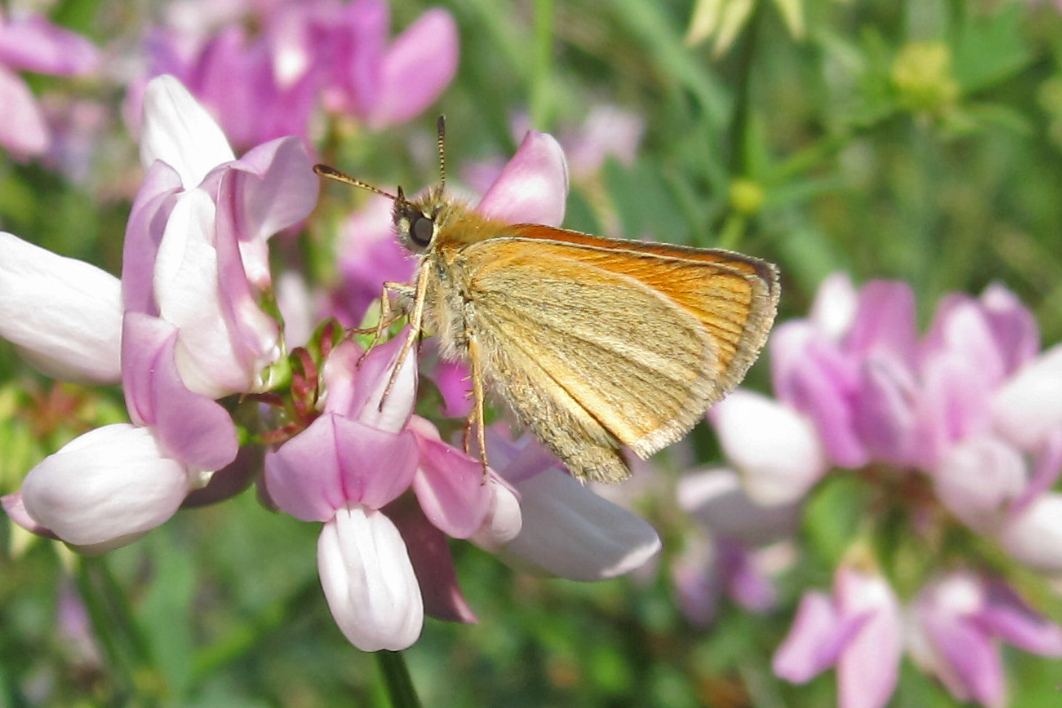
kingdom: Animalia
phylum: Arthropoda
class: Insecta
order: Lepidoptera
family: Hesperiidae
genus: Thymelicus
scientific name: Thymelicus lineola
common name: Essex skipper
